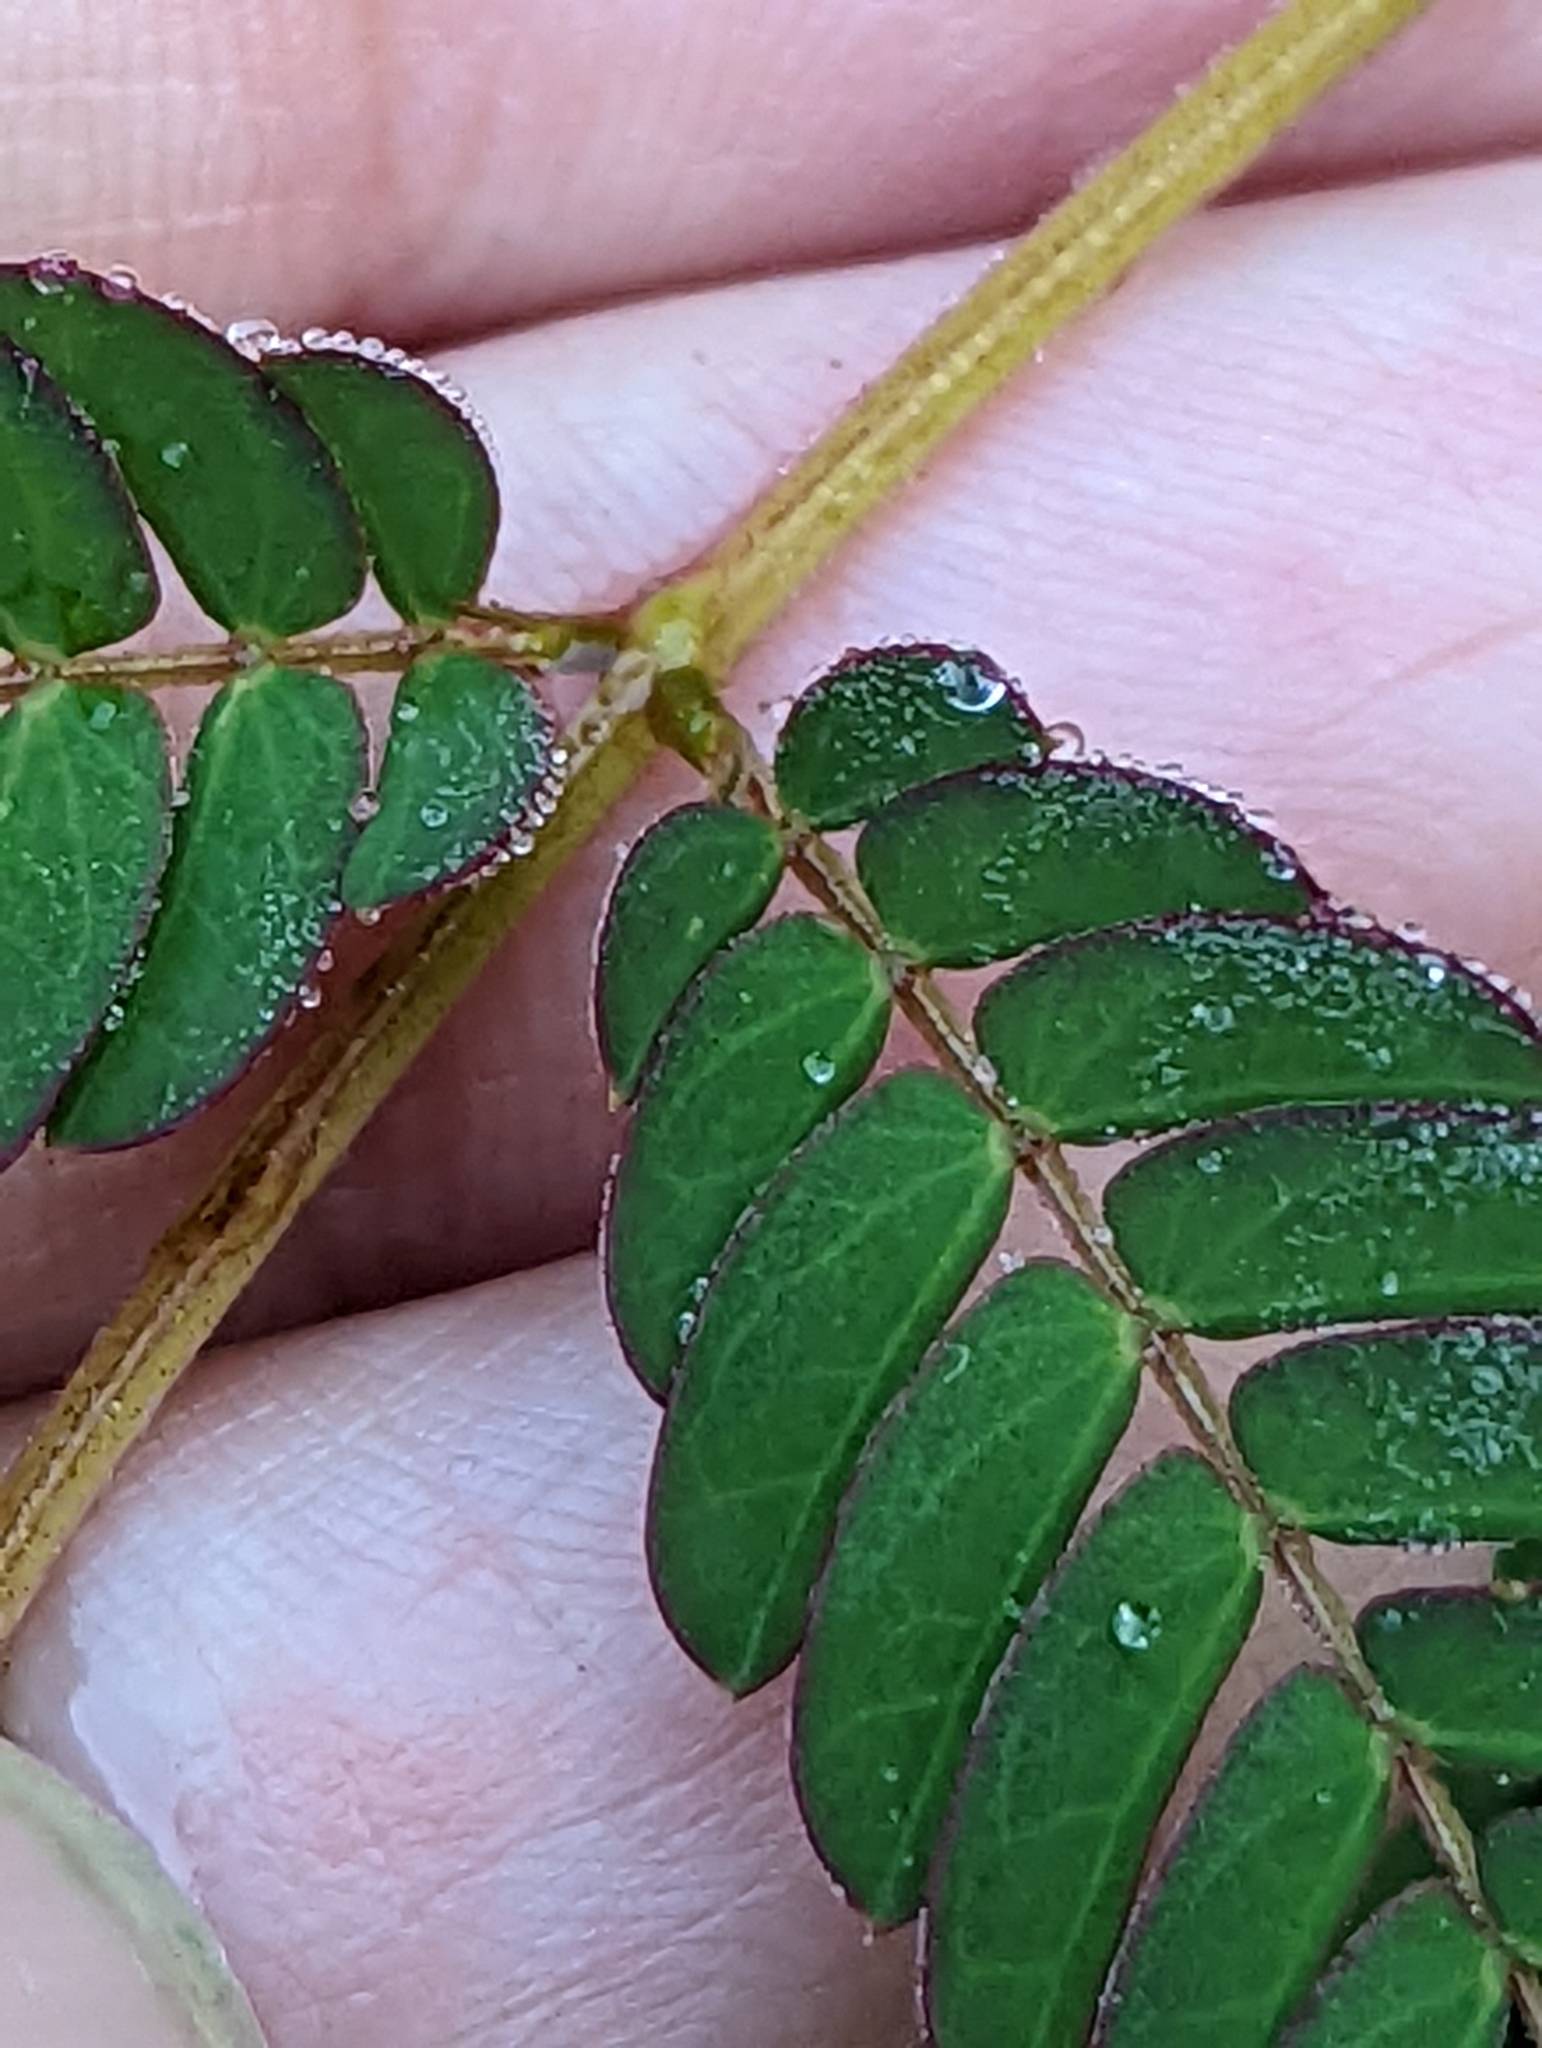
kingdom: Plantae
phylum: Tracheophyta
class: Magnoliopsida
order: Fabales
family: Fabaceae
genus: Albizia
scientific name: Albizia julibrissin
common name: Silktree
